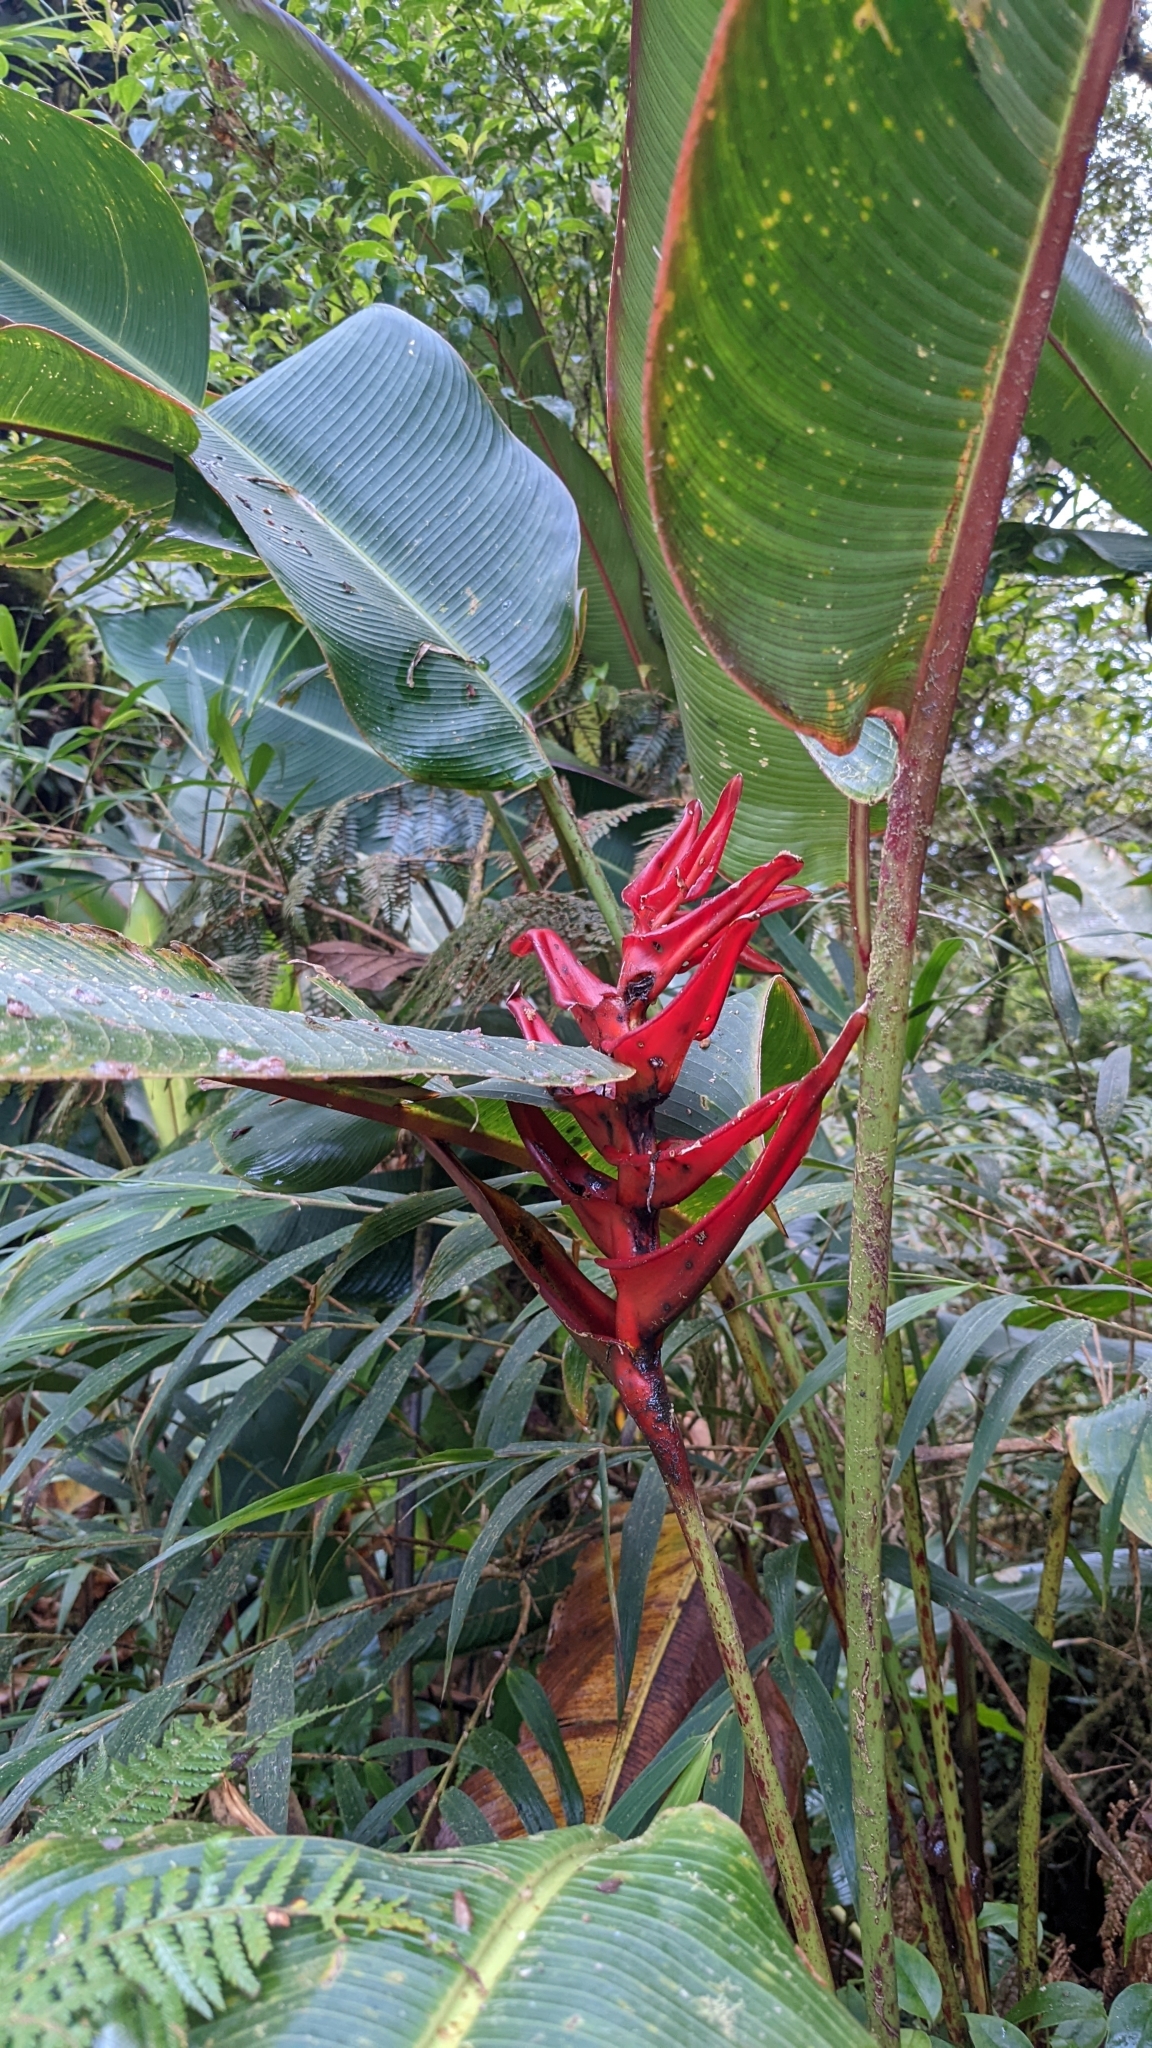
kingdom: Plantae
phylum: Tracheophyta
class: Liliopsida
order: Zingiberales
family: Heliconiaceae
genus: Heliconia
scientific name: Heliconia lankesteri
